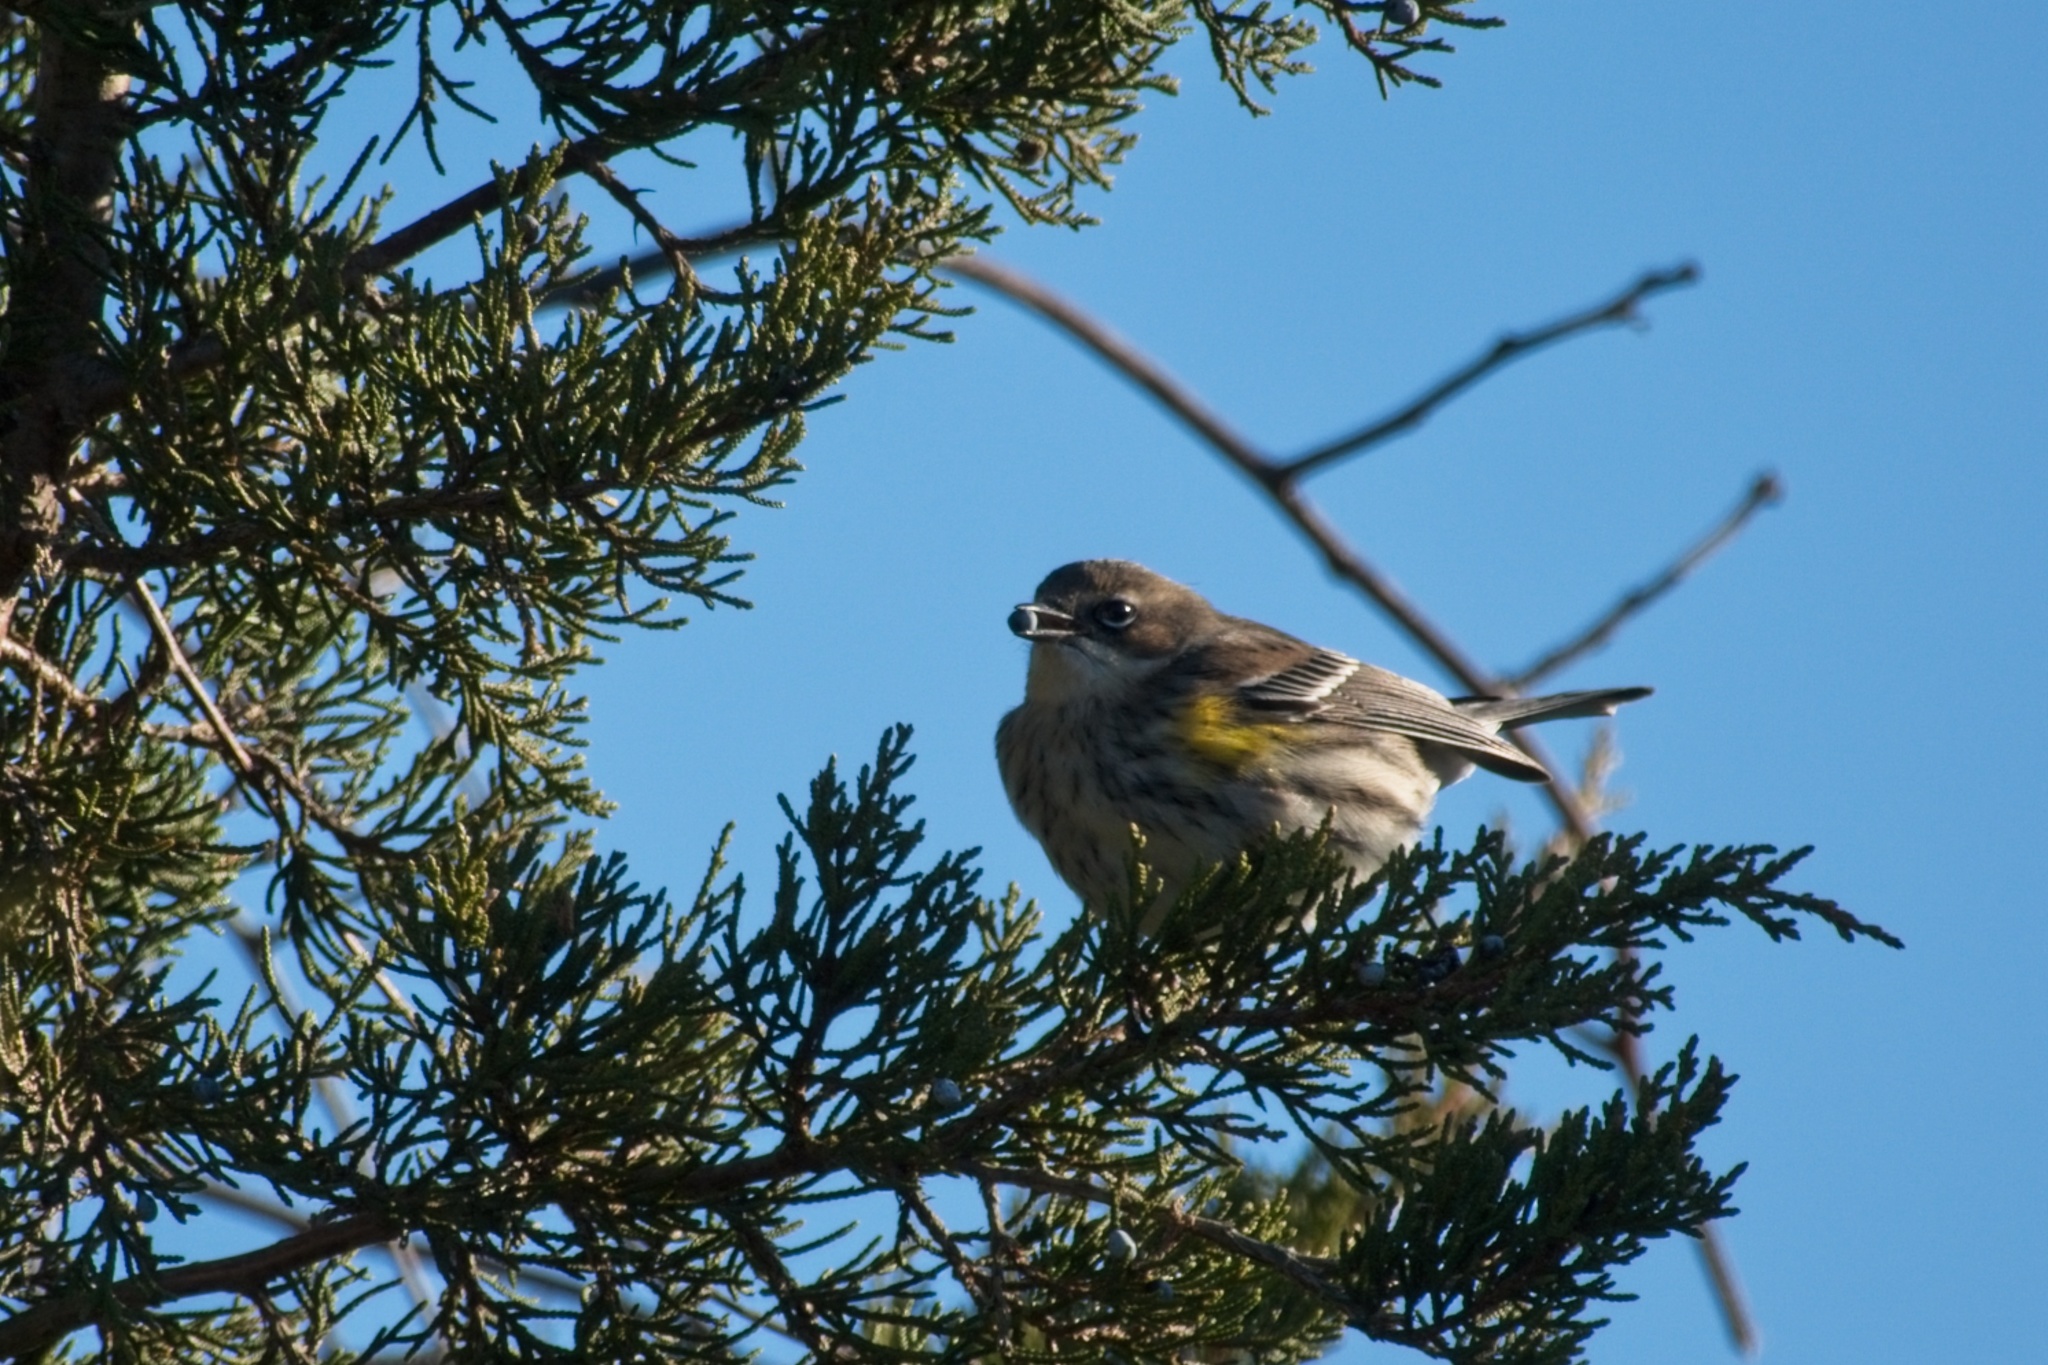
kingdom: Animalia
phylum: Chordata
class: Aves
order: Passeriformes
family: Parulidae
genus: Setophaga
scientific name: Setophaga coronata
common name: Myrtle warbler
